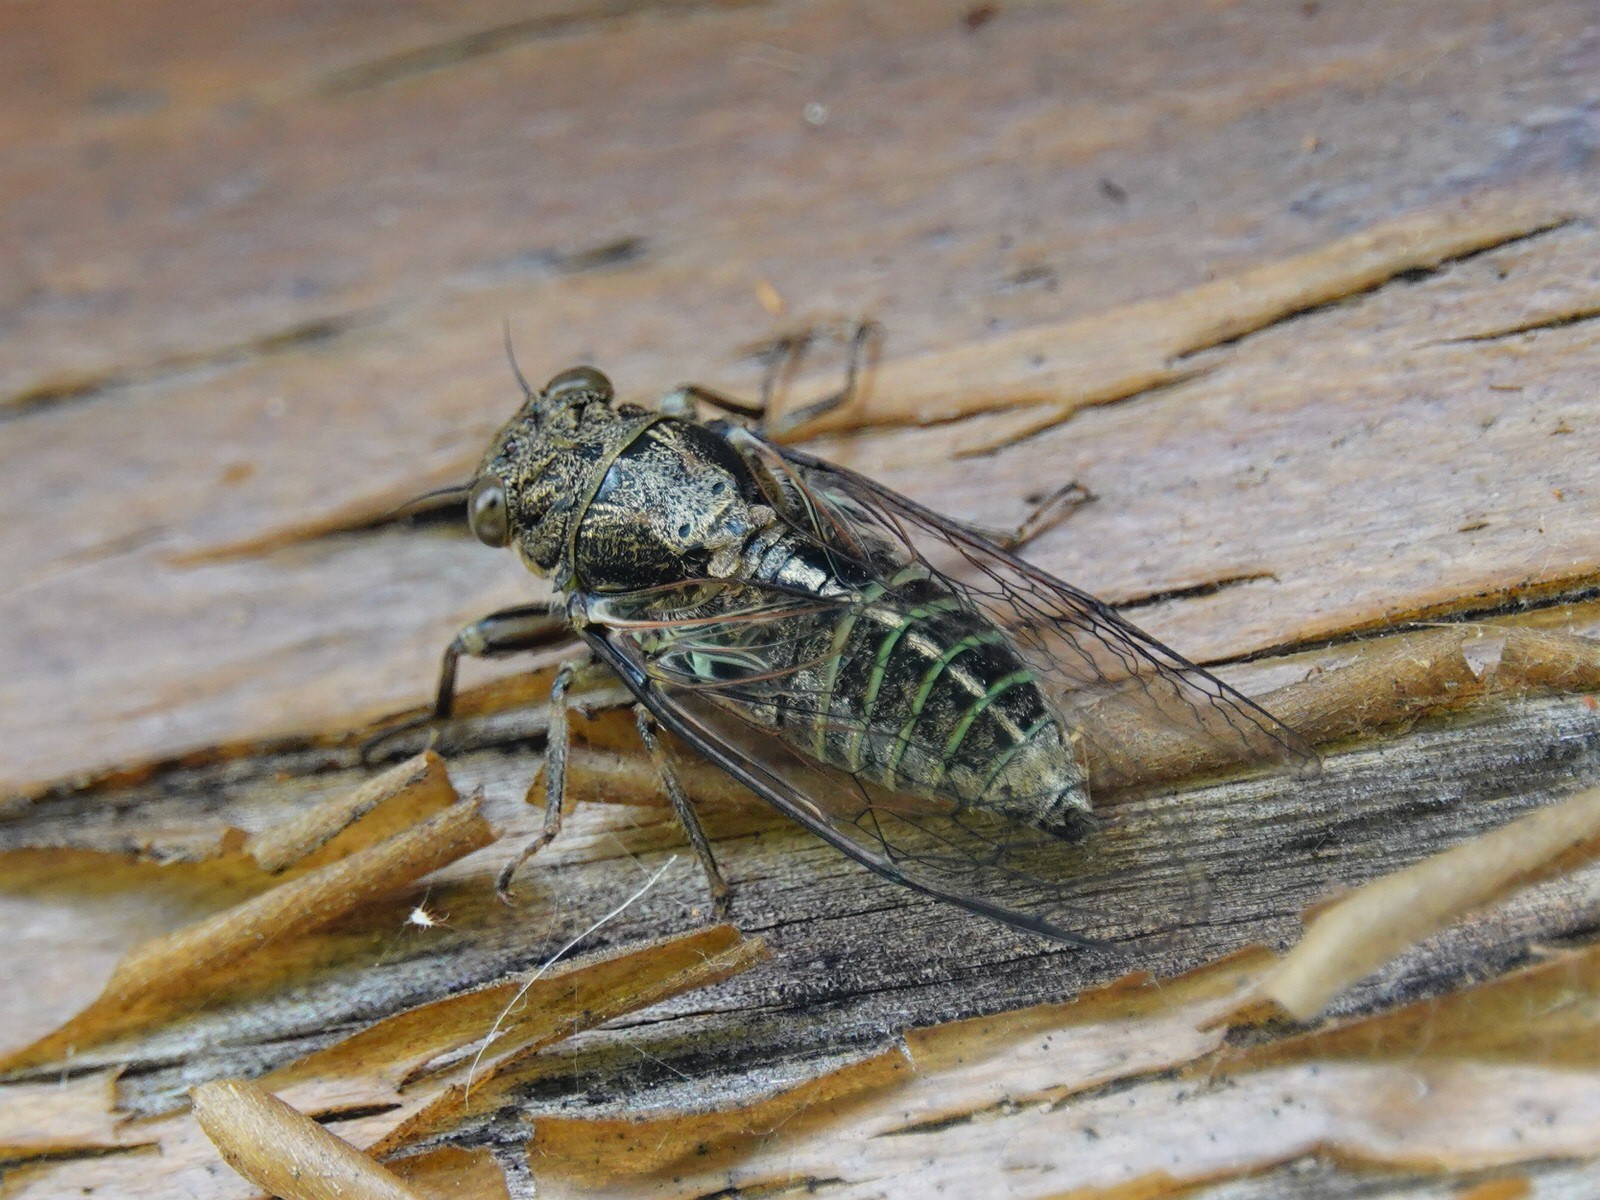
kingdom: Animalia
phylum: Arthropoda
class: Insecta
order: Hemiptera
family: Cicadidae
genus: Notopsalta
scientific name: Notopsalta sericea
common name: Clay bank cicada
